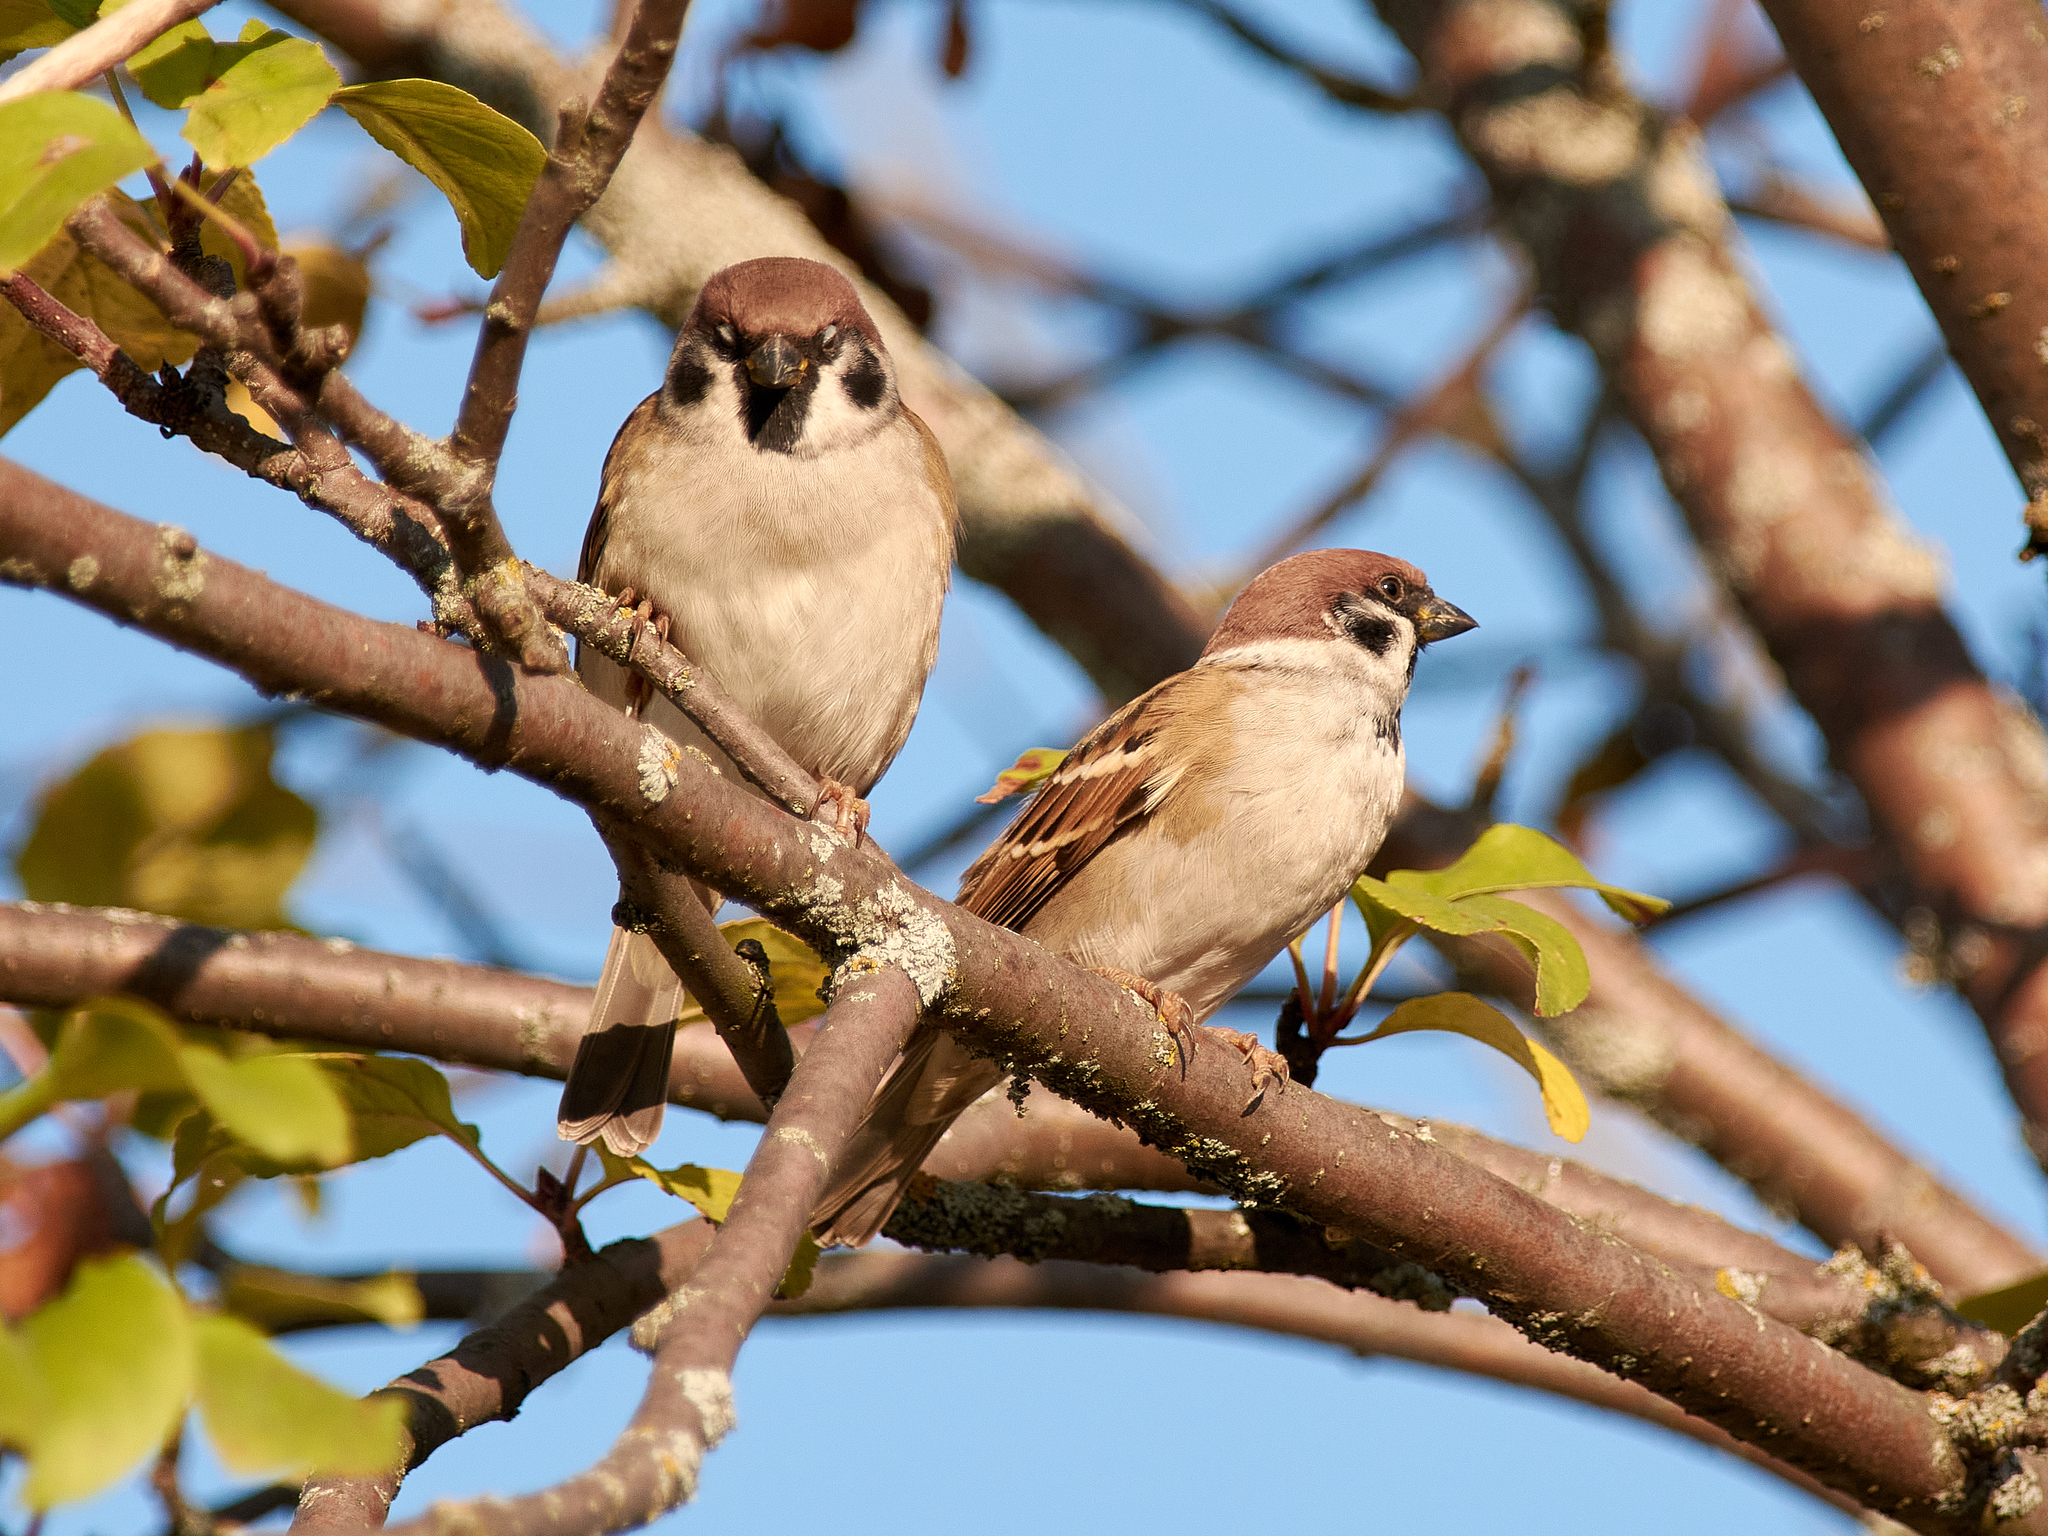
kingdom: Animalia
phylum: Chordata
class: Aves
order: Passeriformes
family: Passeridae
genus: Passer
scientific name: Passer montanus
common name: Eurasian tree sparrow
